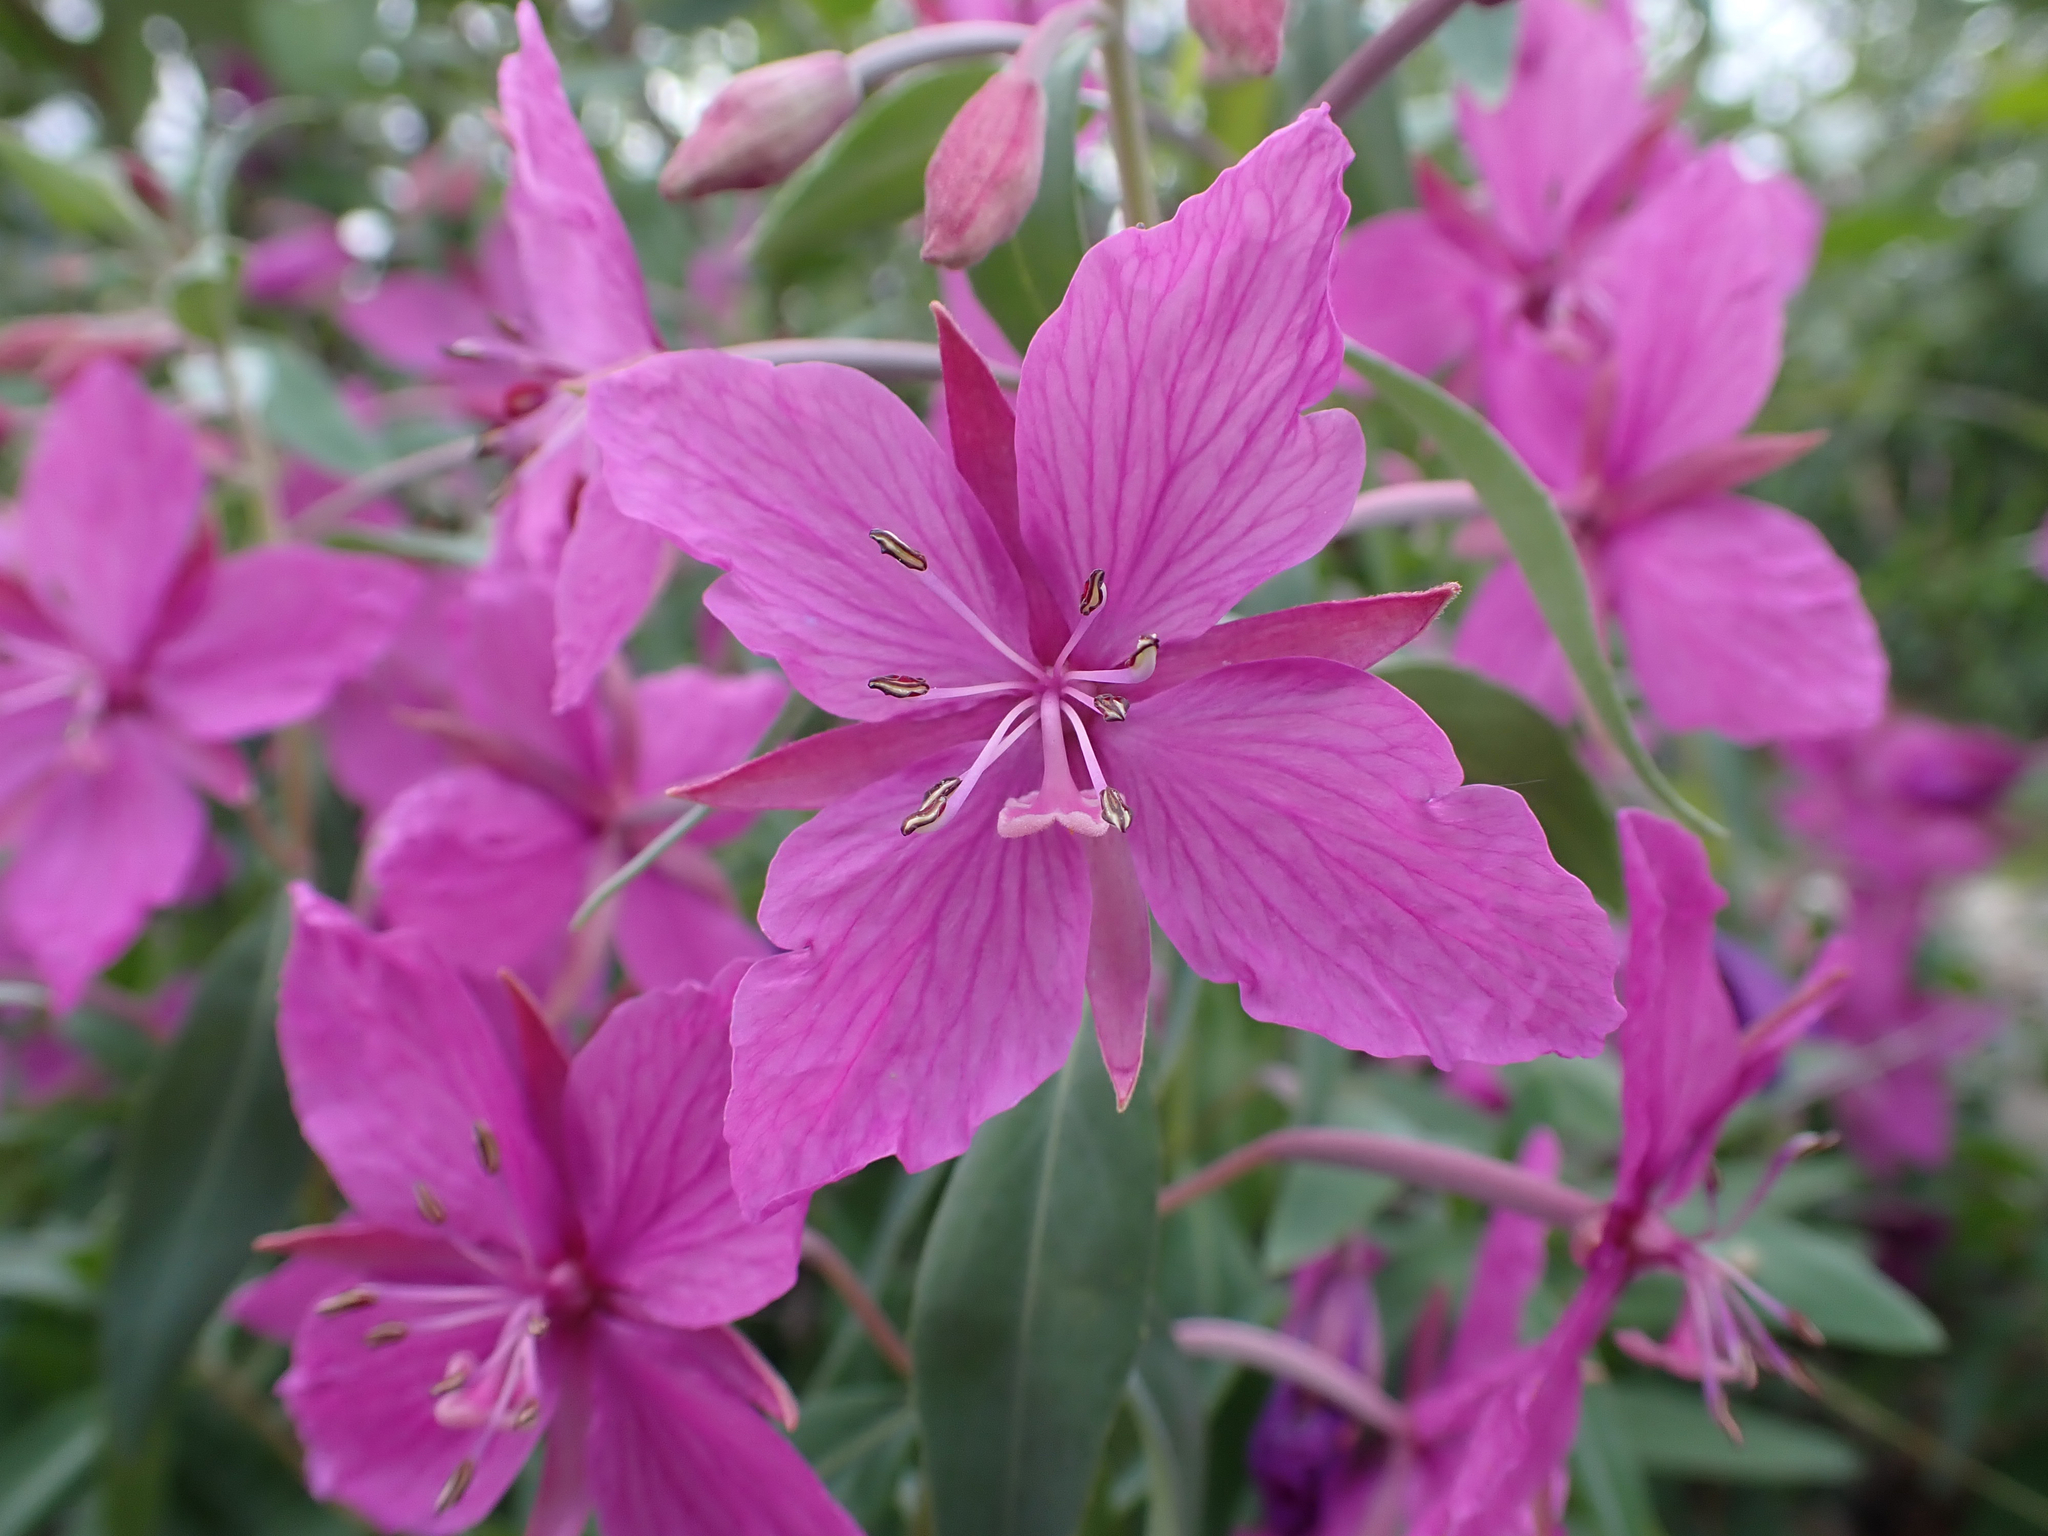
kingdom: Plantae
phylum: Tracheophyta
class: Magnoliopsida
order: Myrtales
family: Onagraceae
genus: Chamaenerion
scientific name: Chamaenerion latifolium
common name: Dwarf fireweed
